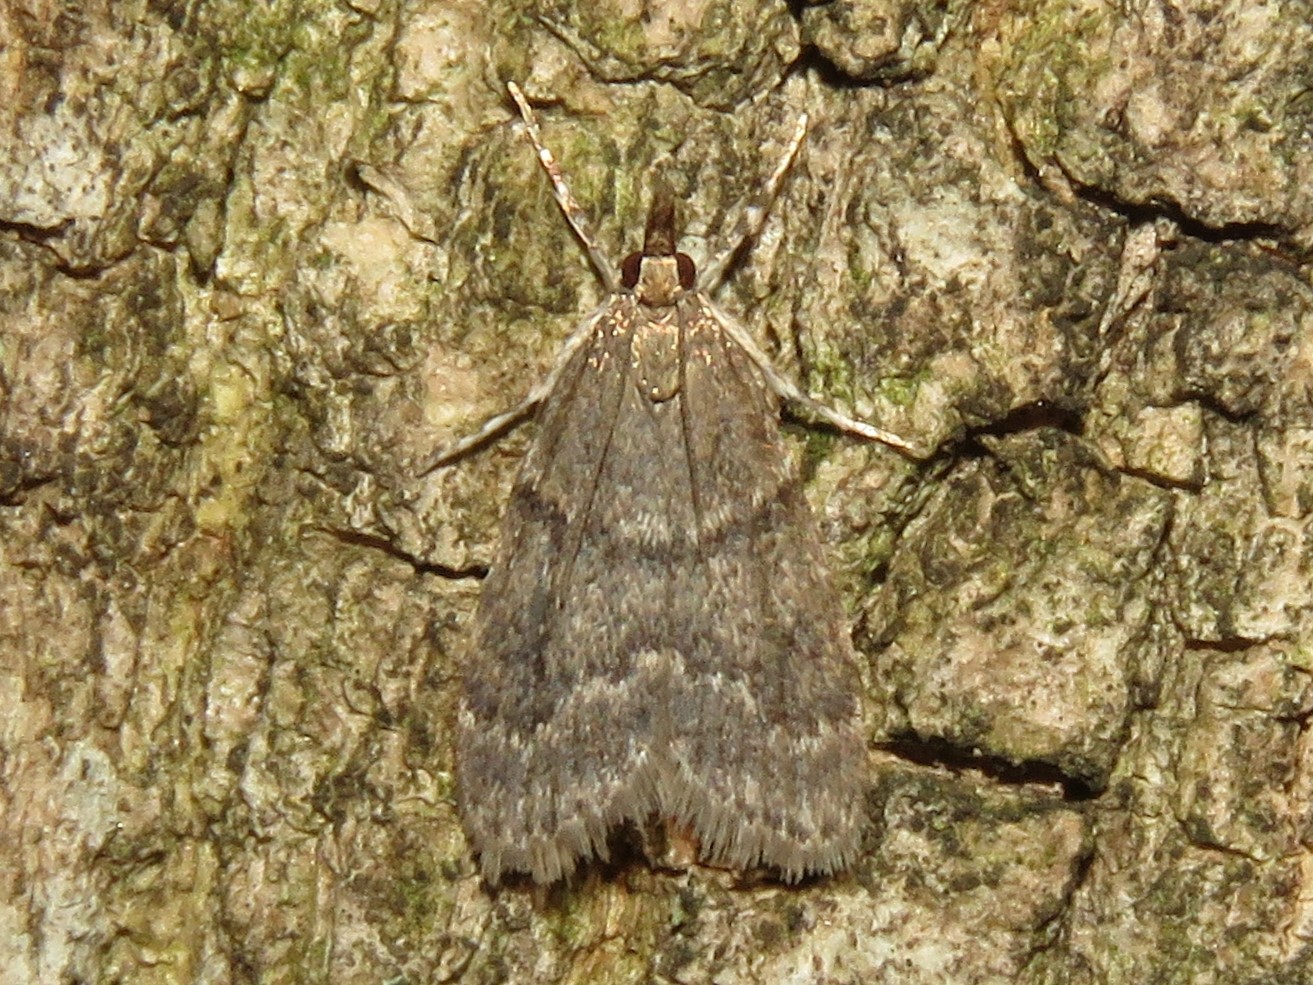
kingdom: Animalia
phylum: Arthropoda
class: Insecta
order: Lepidoptera
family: Crambidae
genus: Scoparia
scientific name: Scoparia penumbralis
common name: Dark brown scoparia moth
